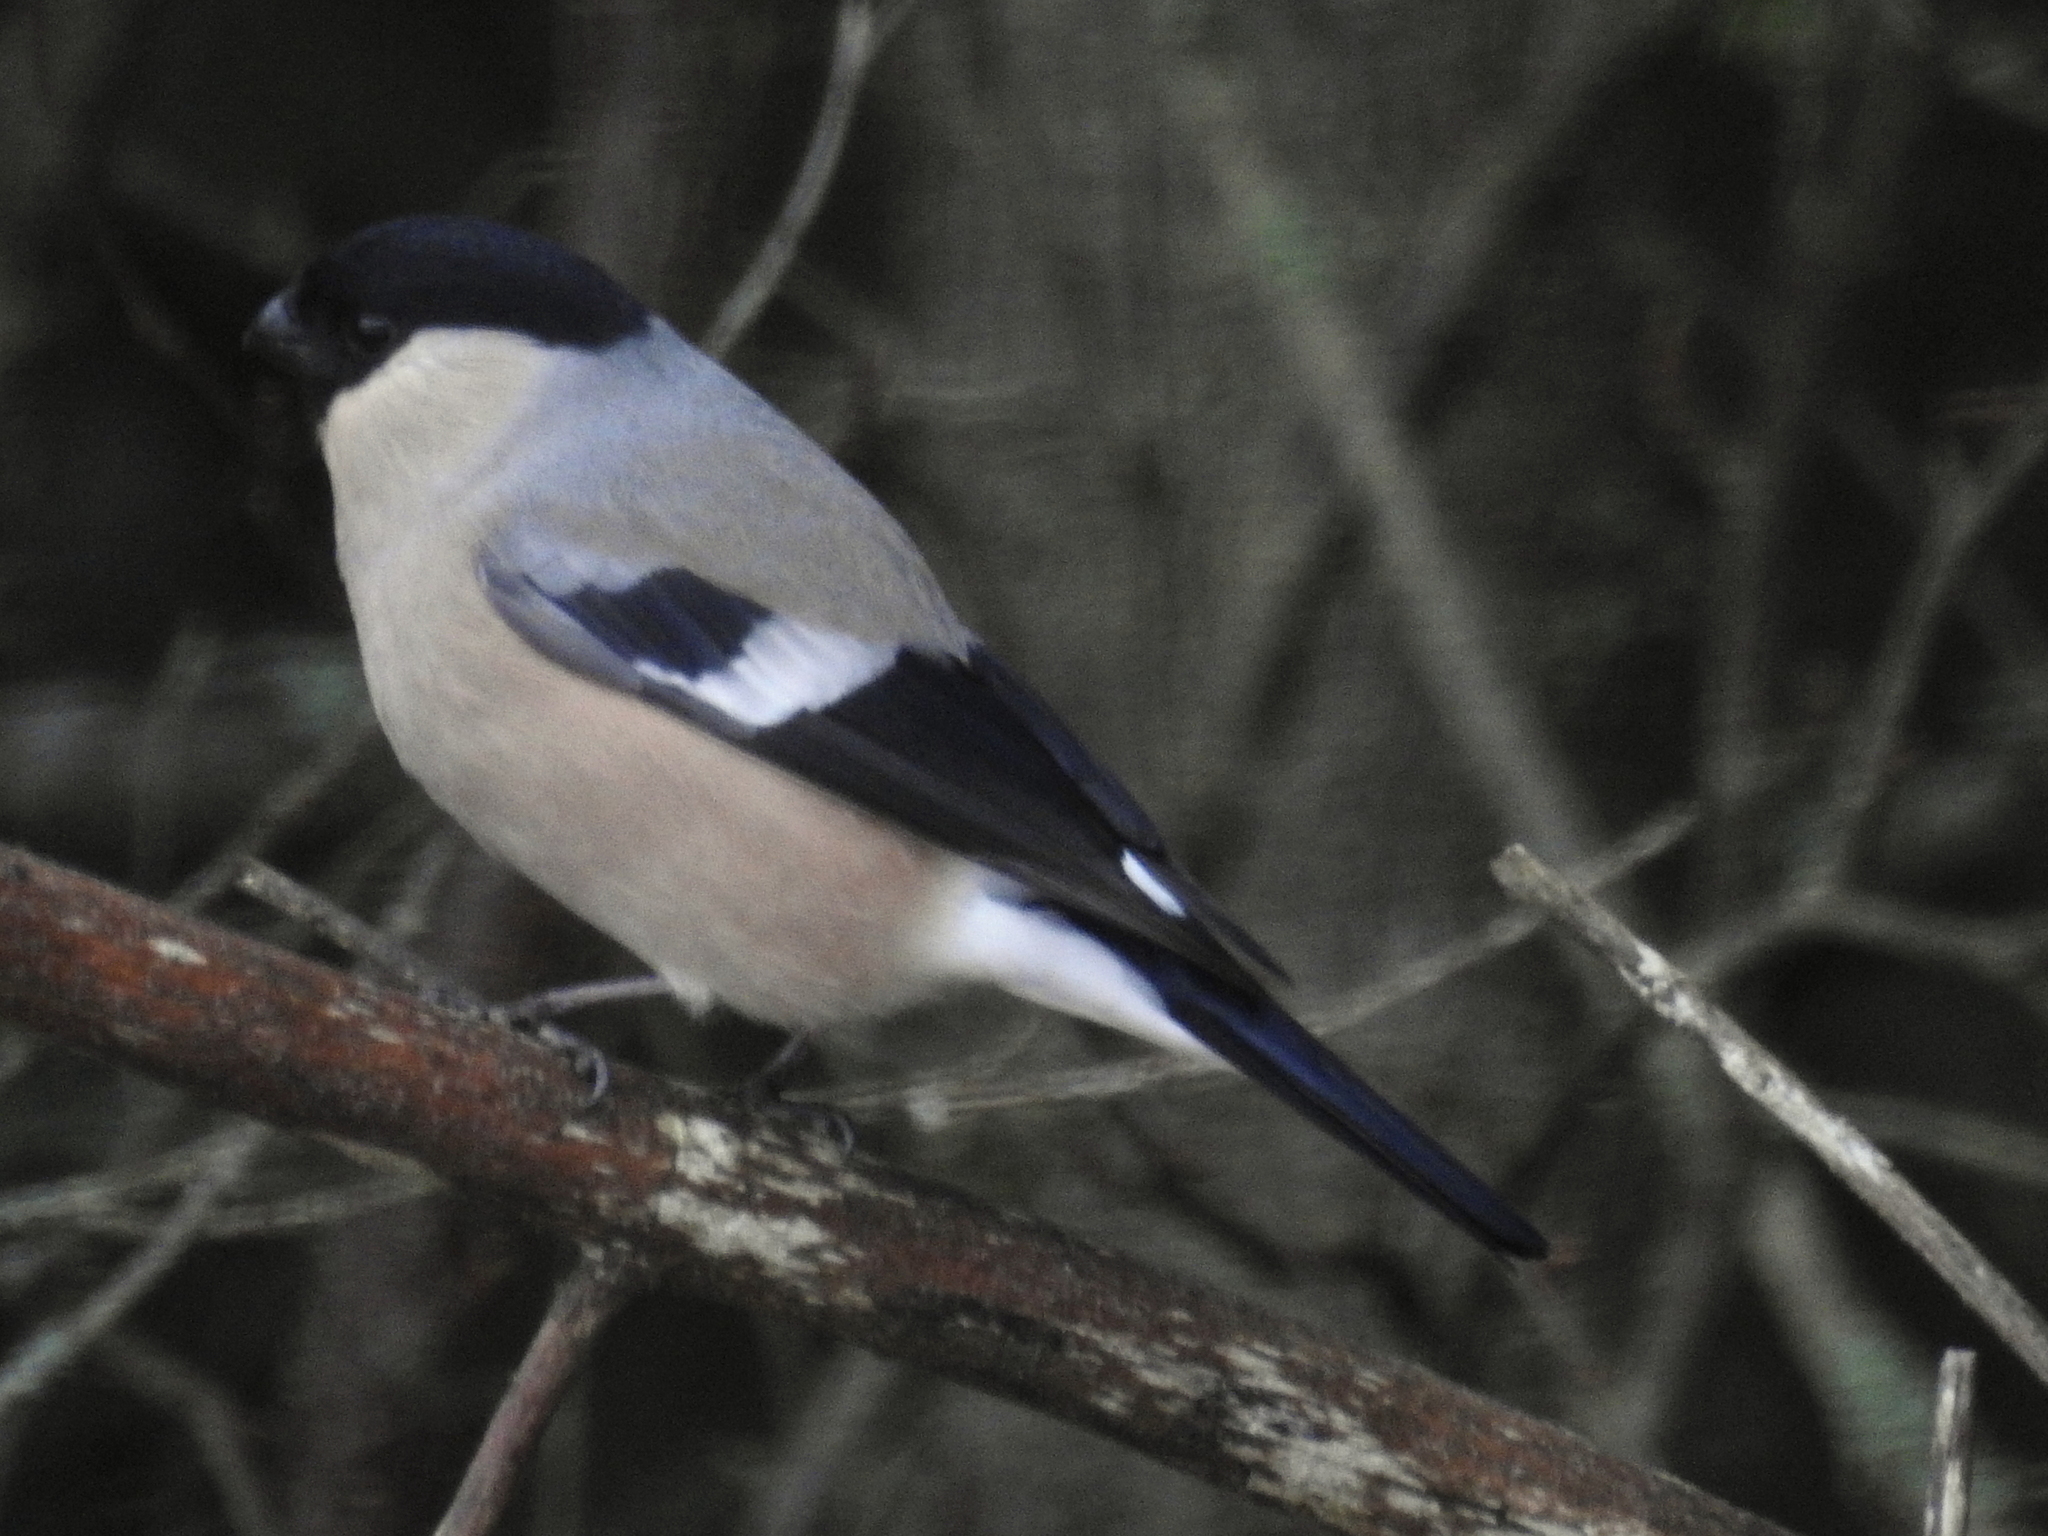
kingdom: Animalia
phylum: Chordata
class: Aves
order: Passeriformes
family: Fringillidae
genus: Pyrrhula
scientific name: Pyrrhula pyrrhula
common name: Eurasian bullfinch
